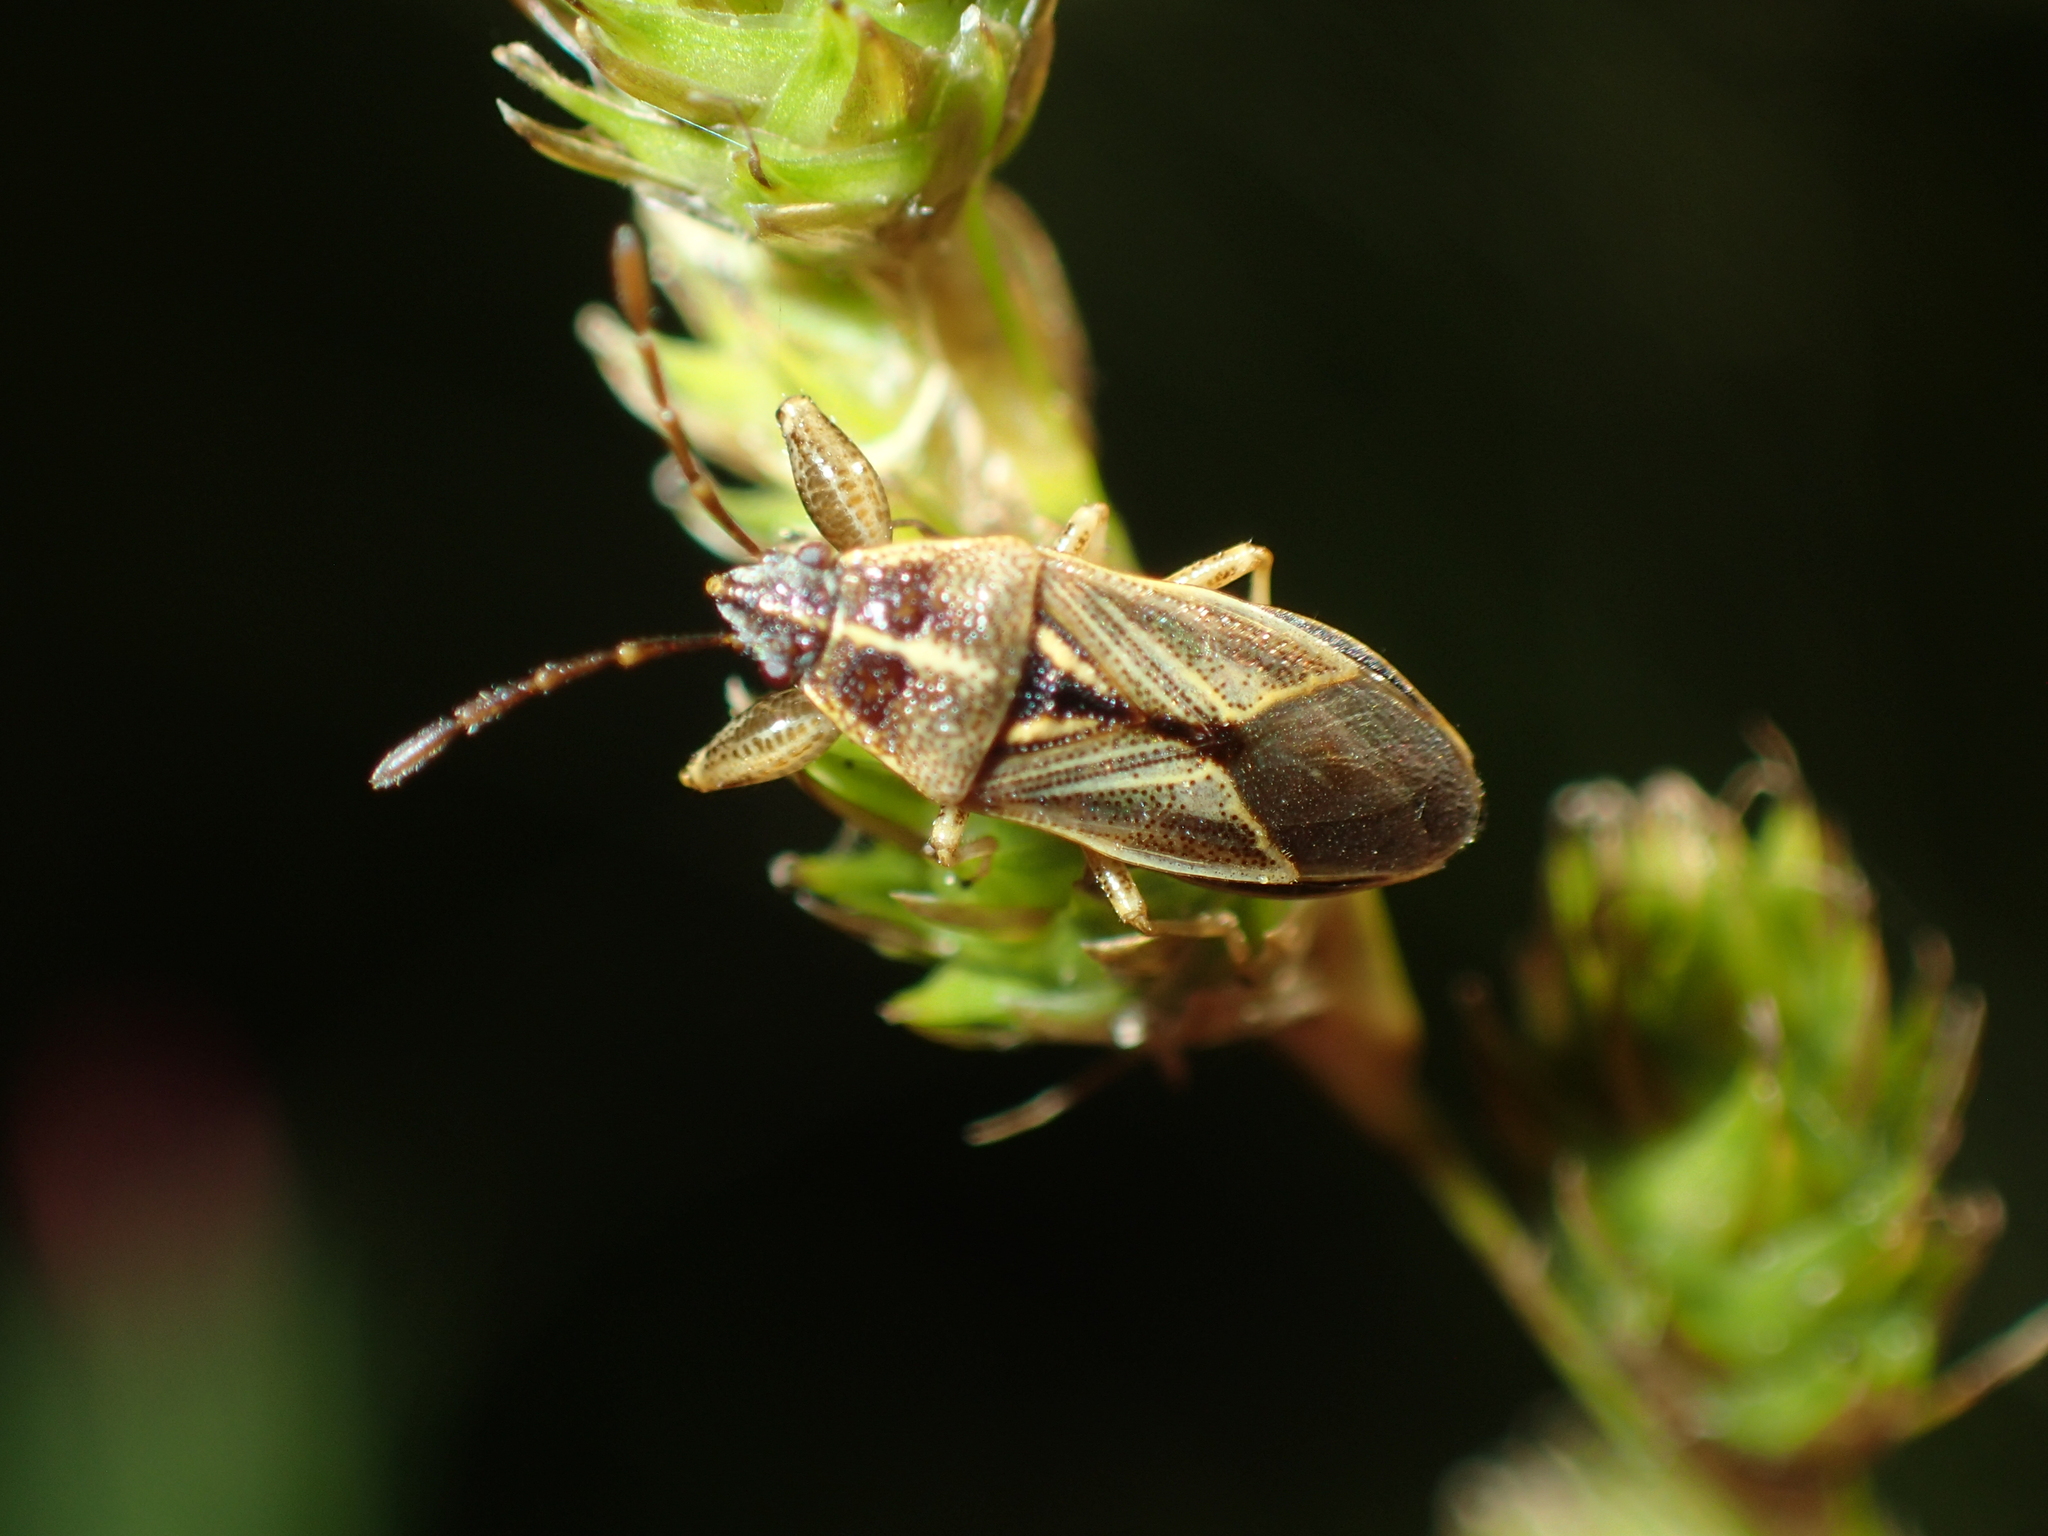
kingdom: Animalia
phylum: Arthropoda
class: Insecta
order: Hemiptera
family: Pachygronthidae
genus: Oedancala
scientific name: Oedancala dorsalis
